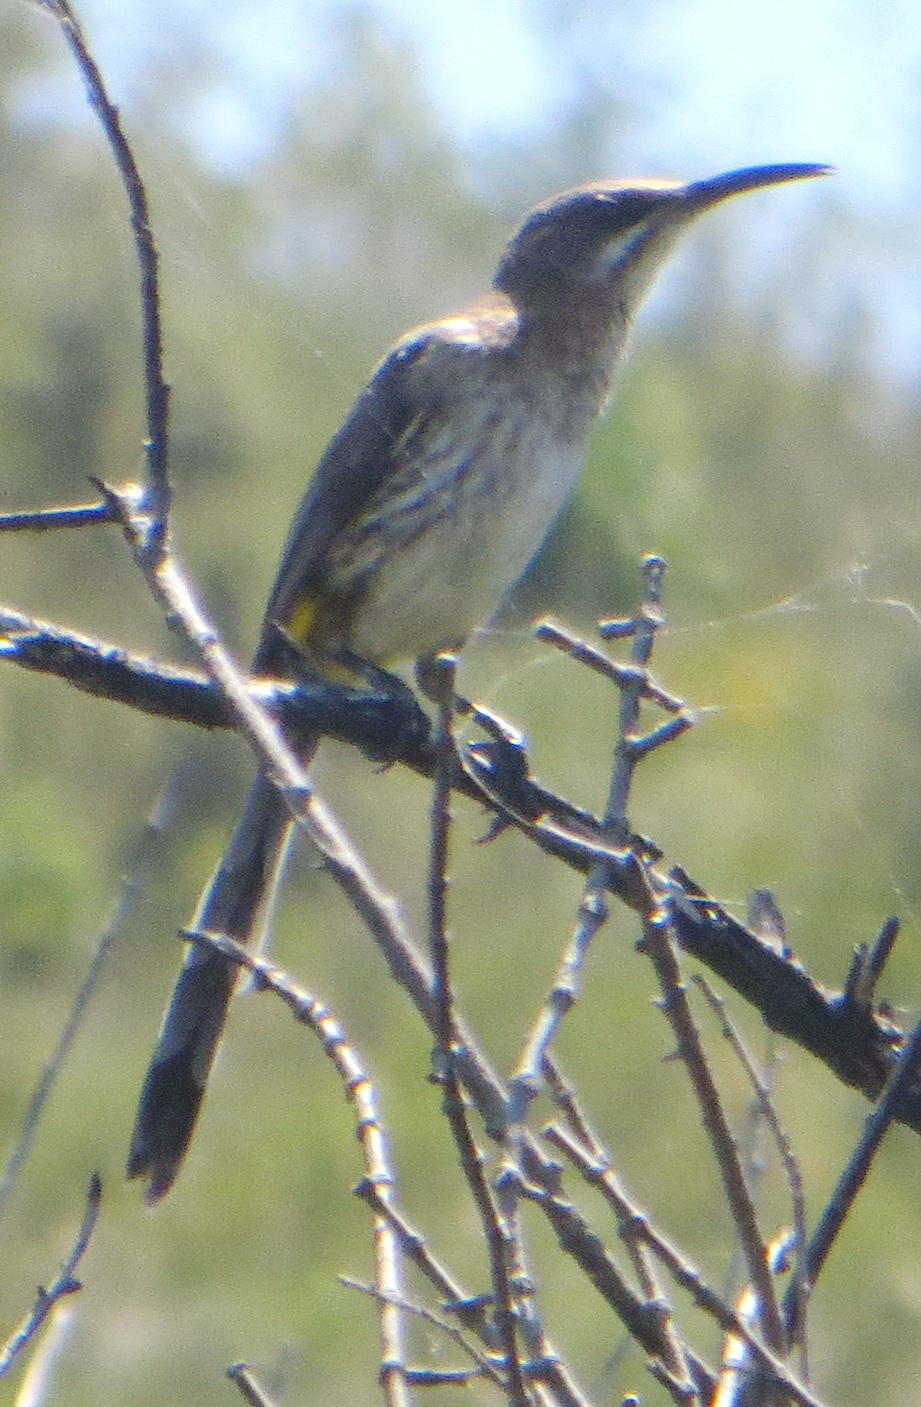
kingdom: Animalia
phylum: Chordata
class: Aves
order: Passeriformes
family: Promeropidae
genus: Promerops
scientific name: Promerops cafer
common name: Cape sugarbird
